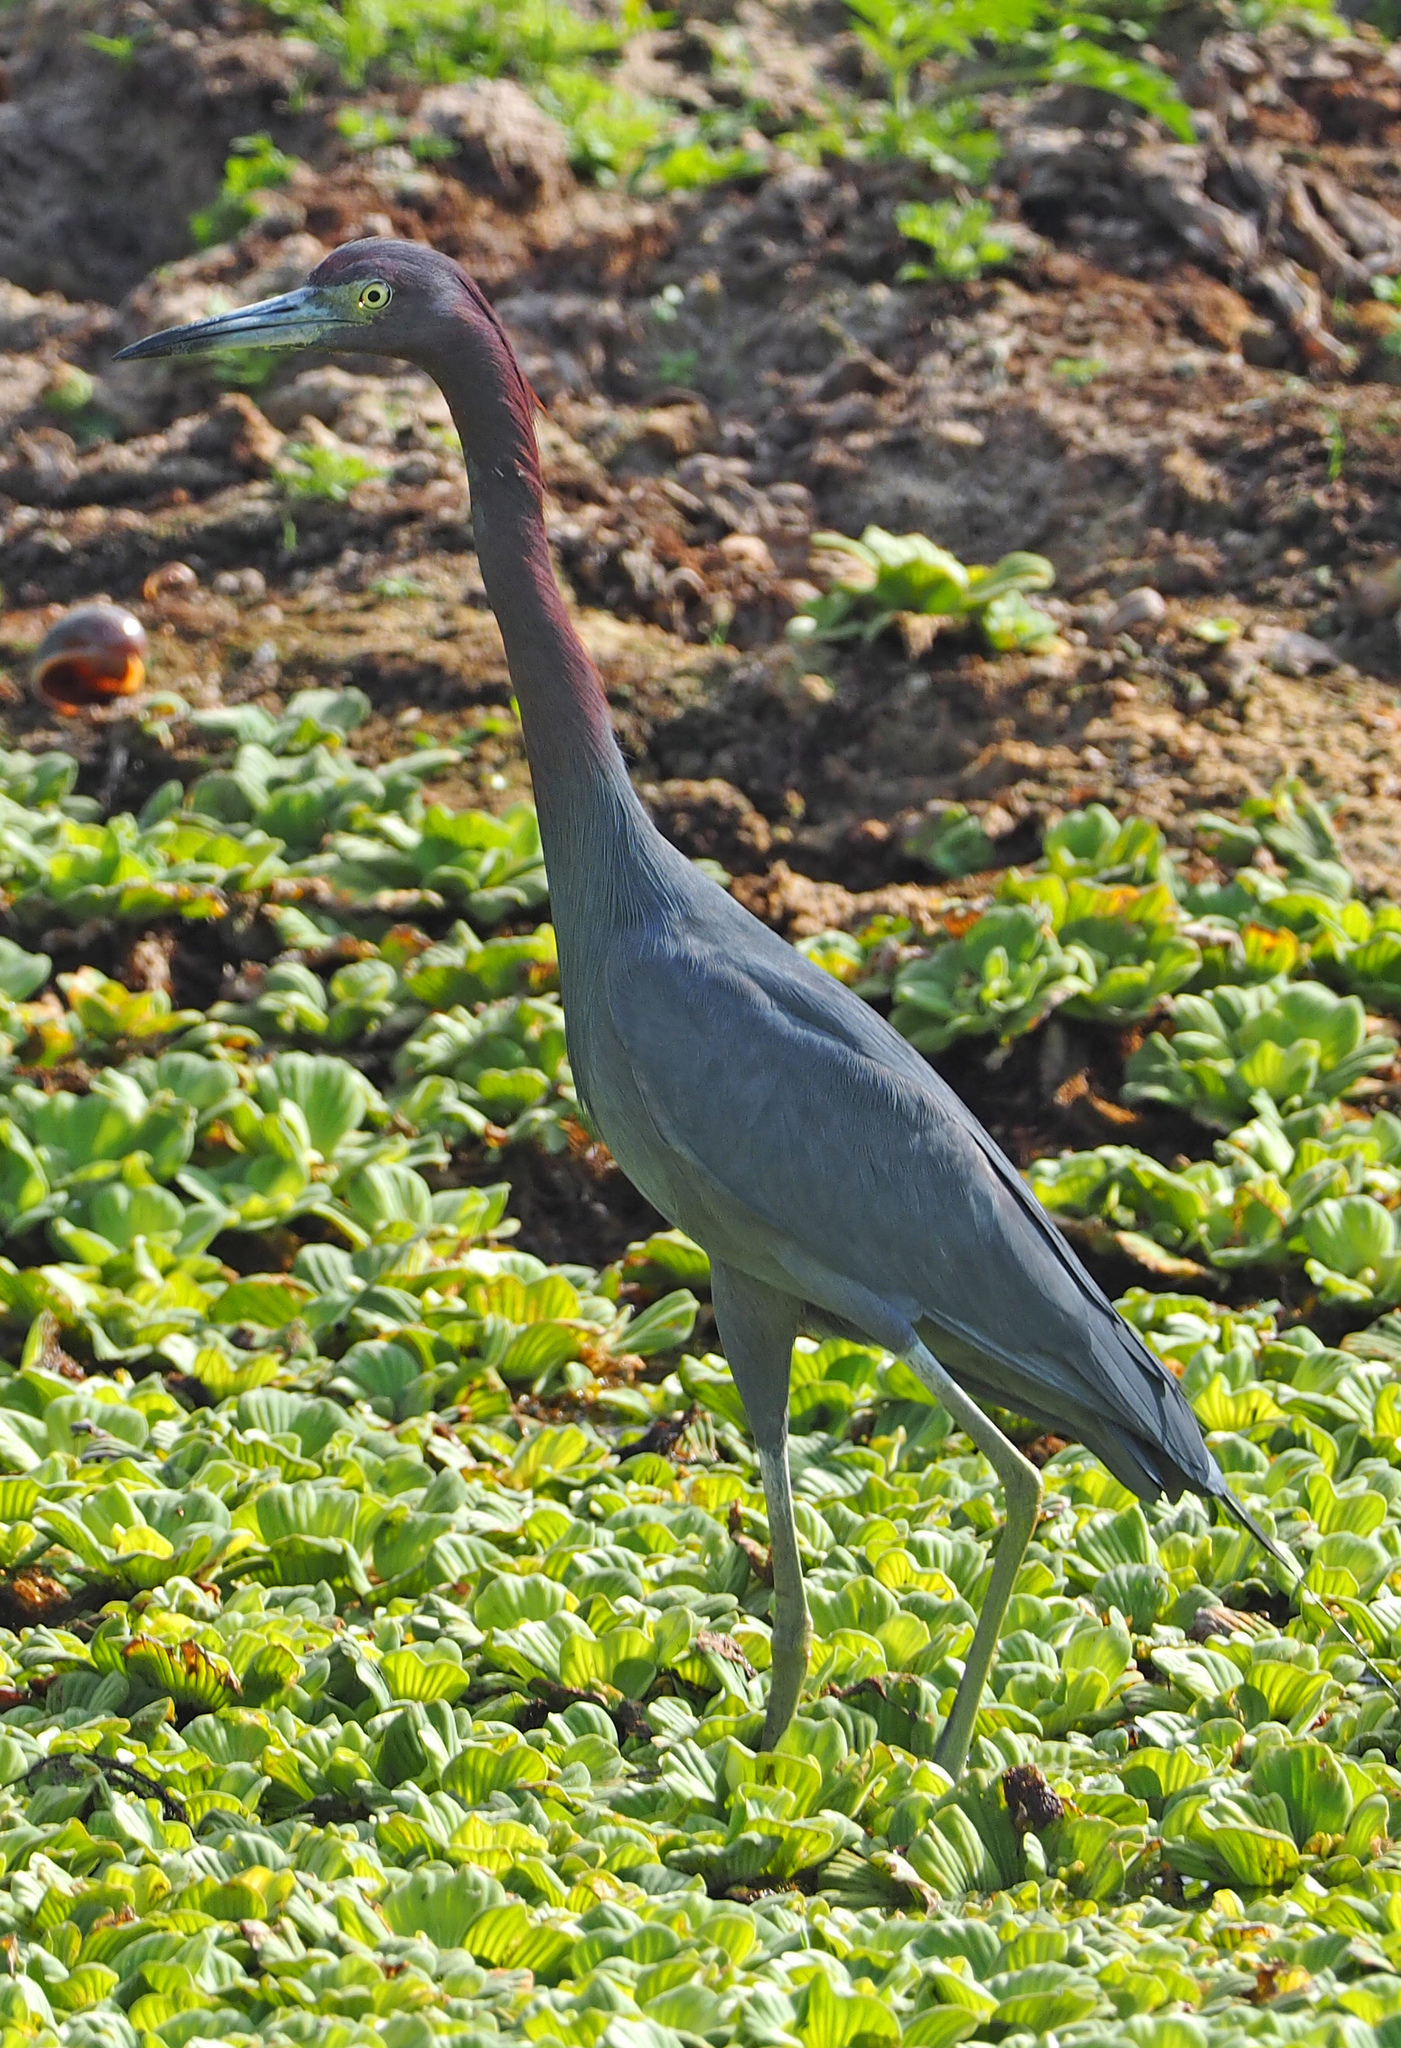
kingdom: Animalia
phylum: Chordata
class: Aves
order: Pelecaniformes
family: Ardeidae
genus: Egretta
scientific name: Egretta caerulea
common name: Little blue heron
